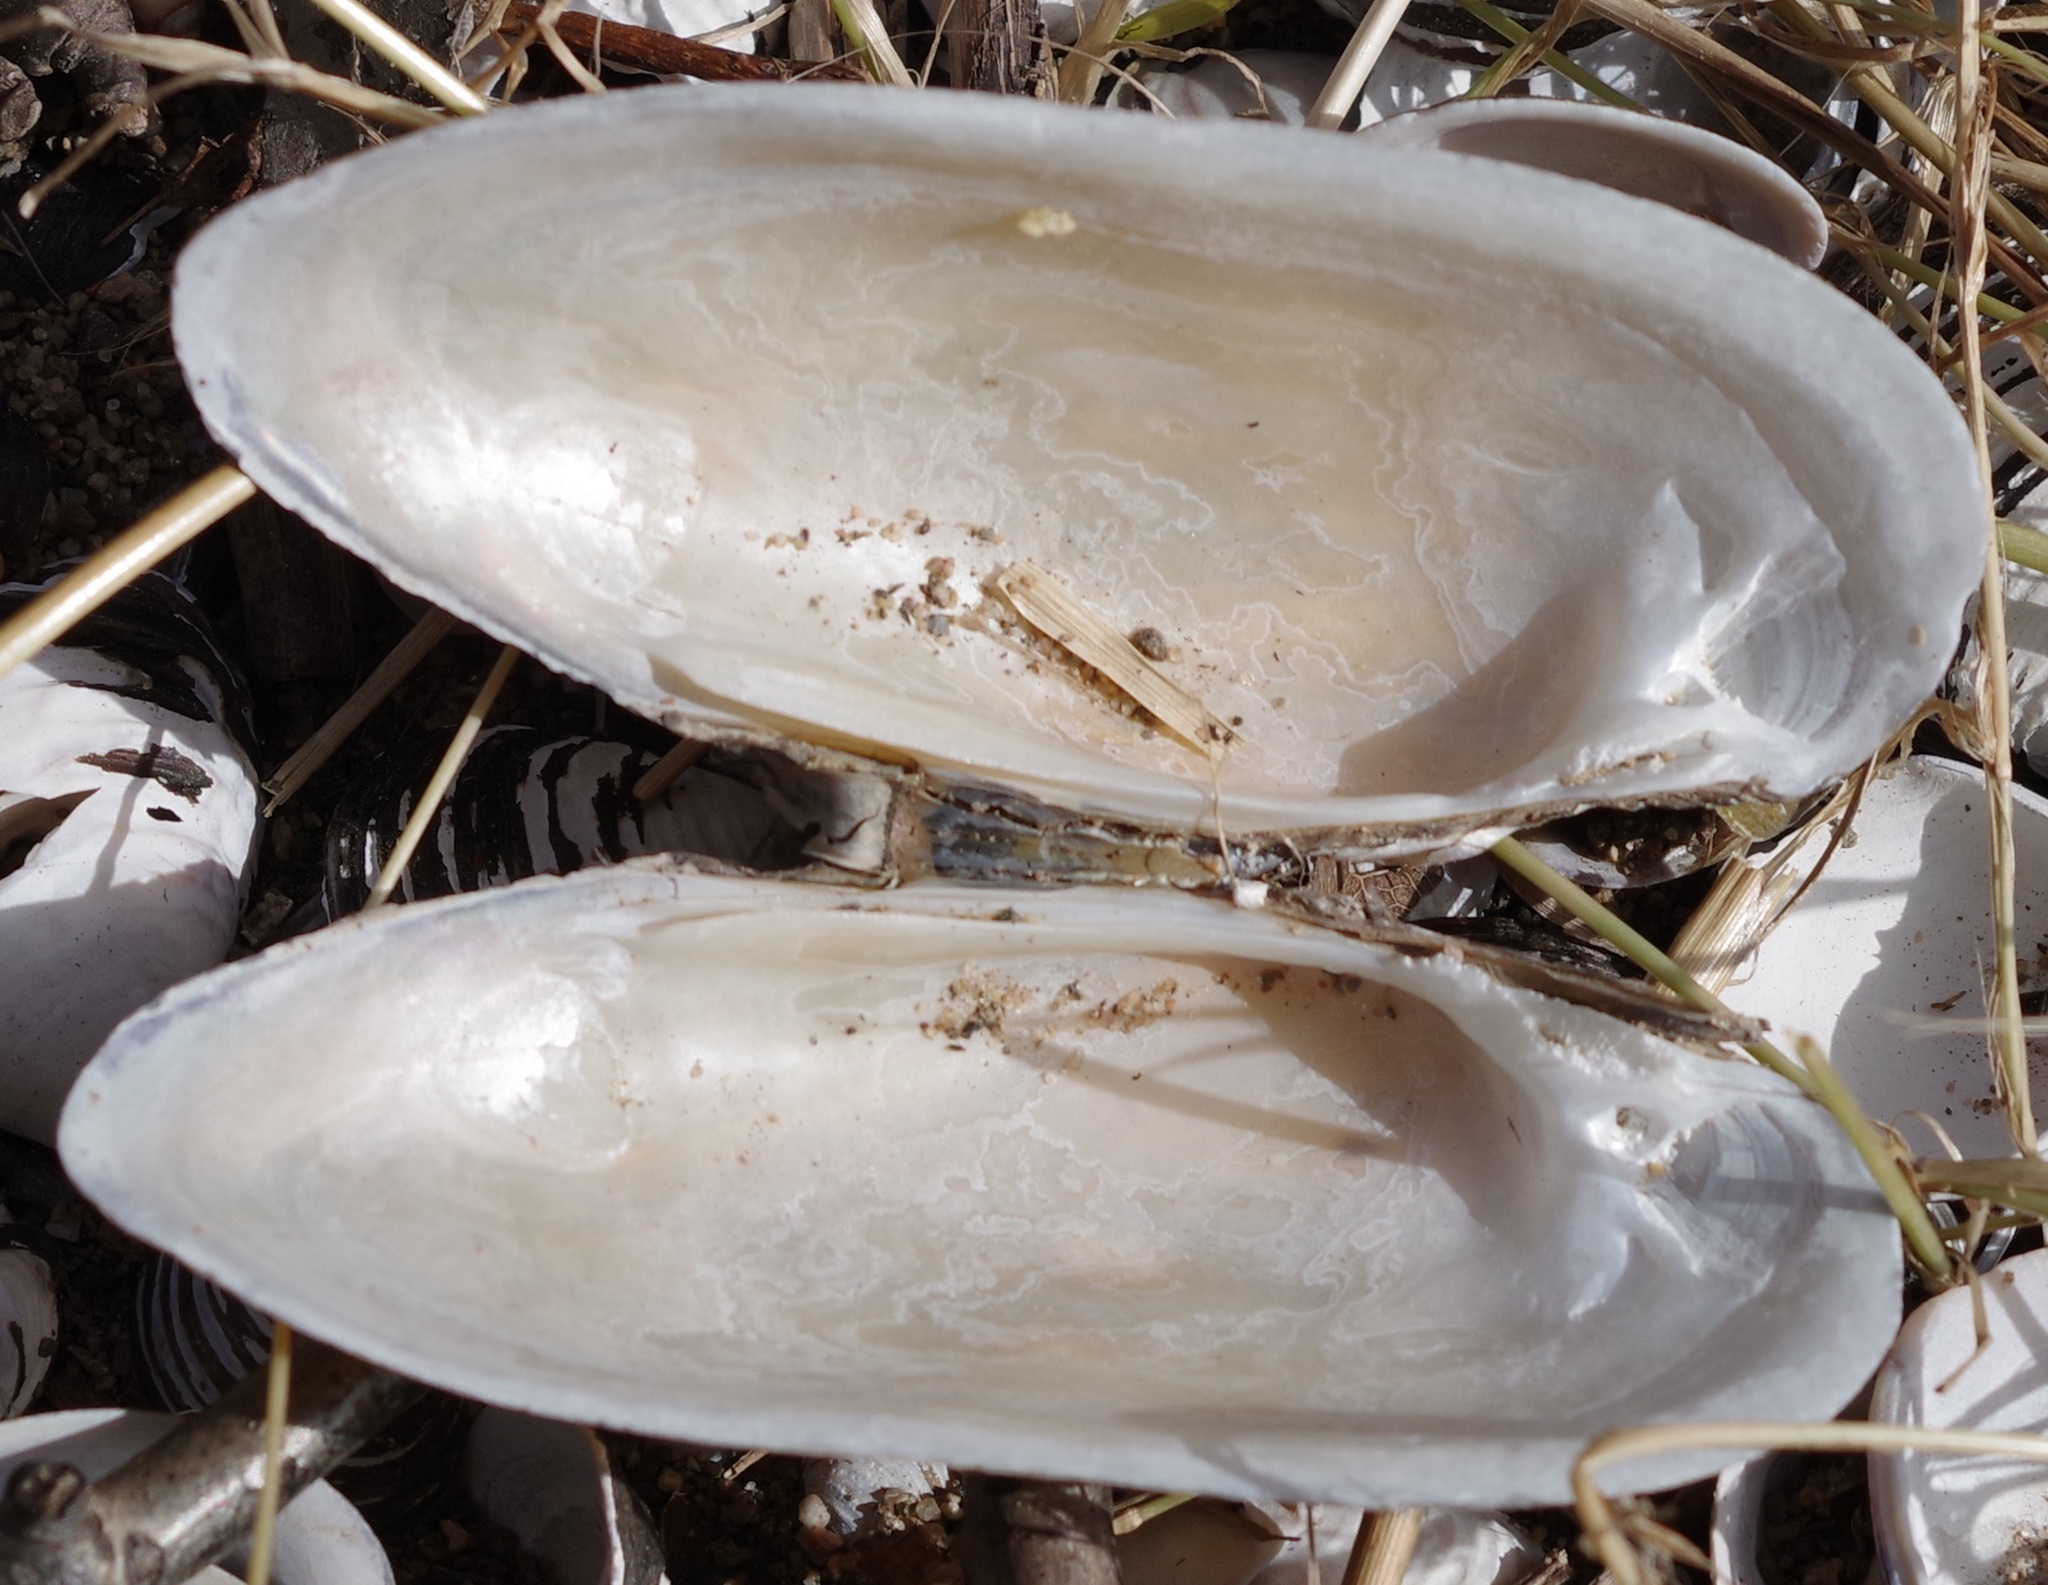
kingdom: Animalia
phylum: Mollusca
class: Bivalvia
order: Unionida
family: Unionidae
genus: Unio
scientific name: Unio pictorum
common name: Painter's mussel
